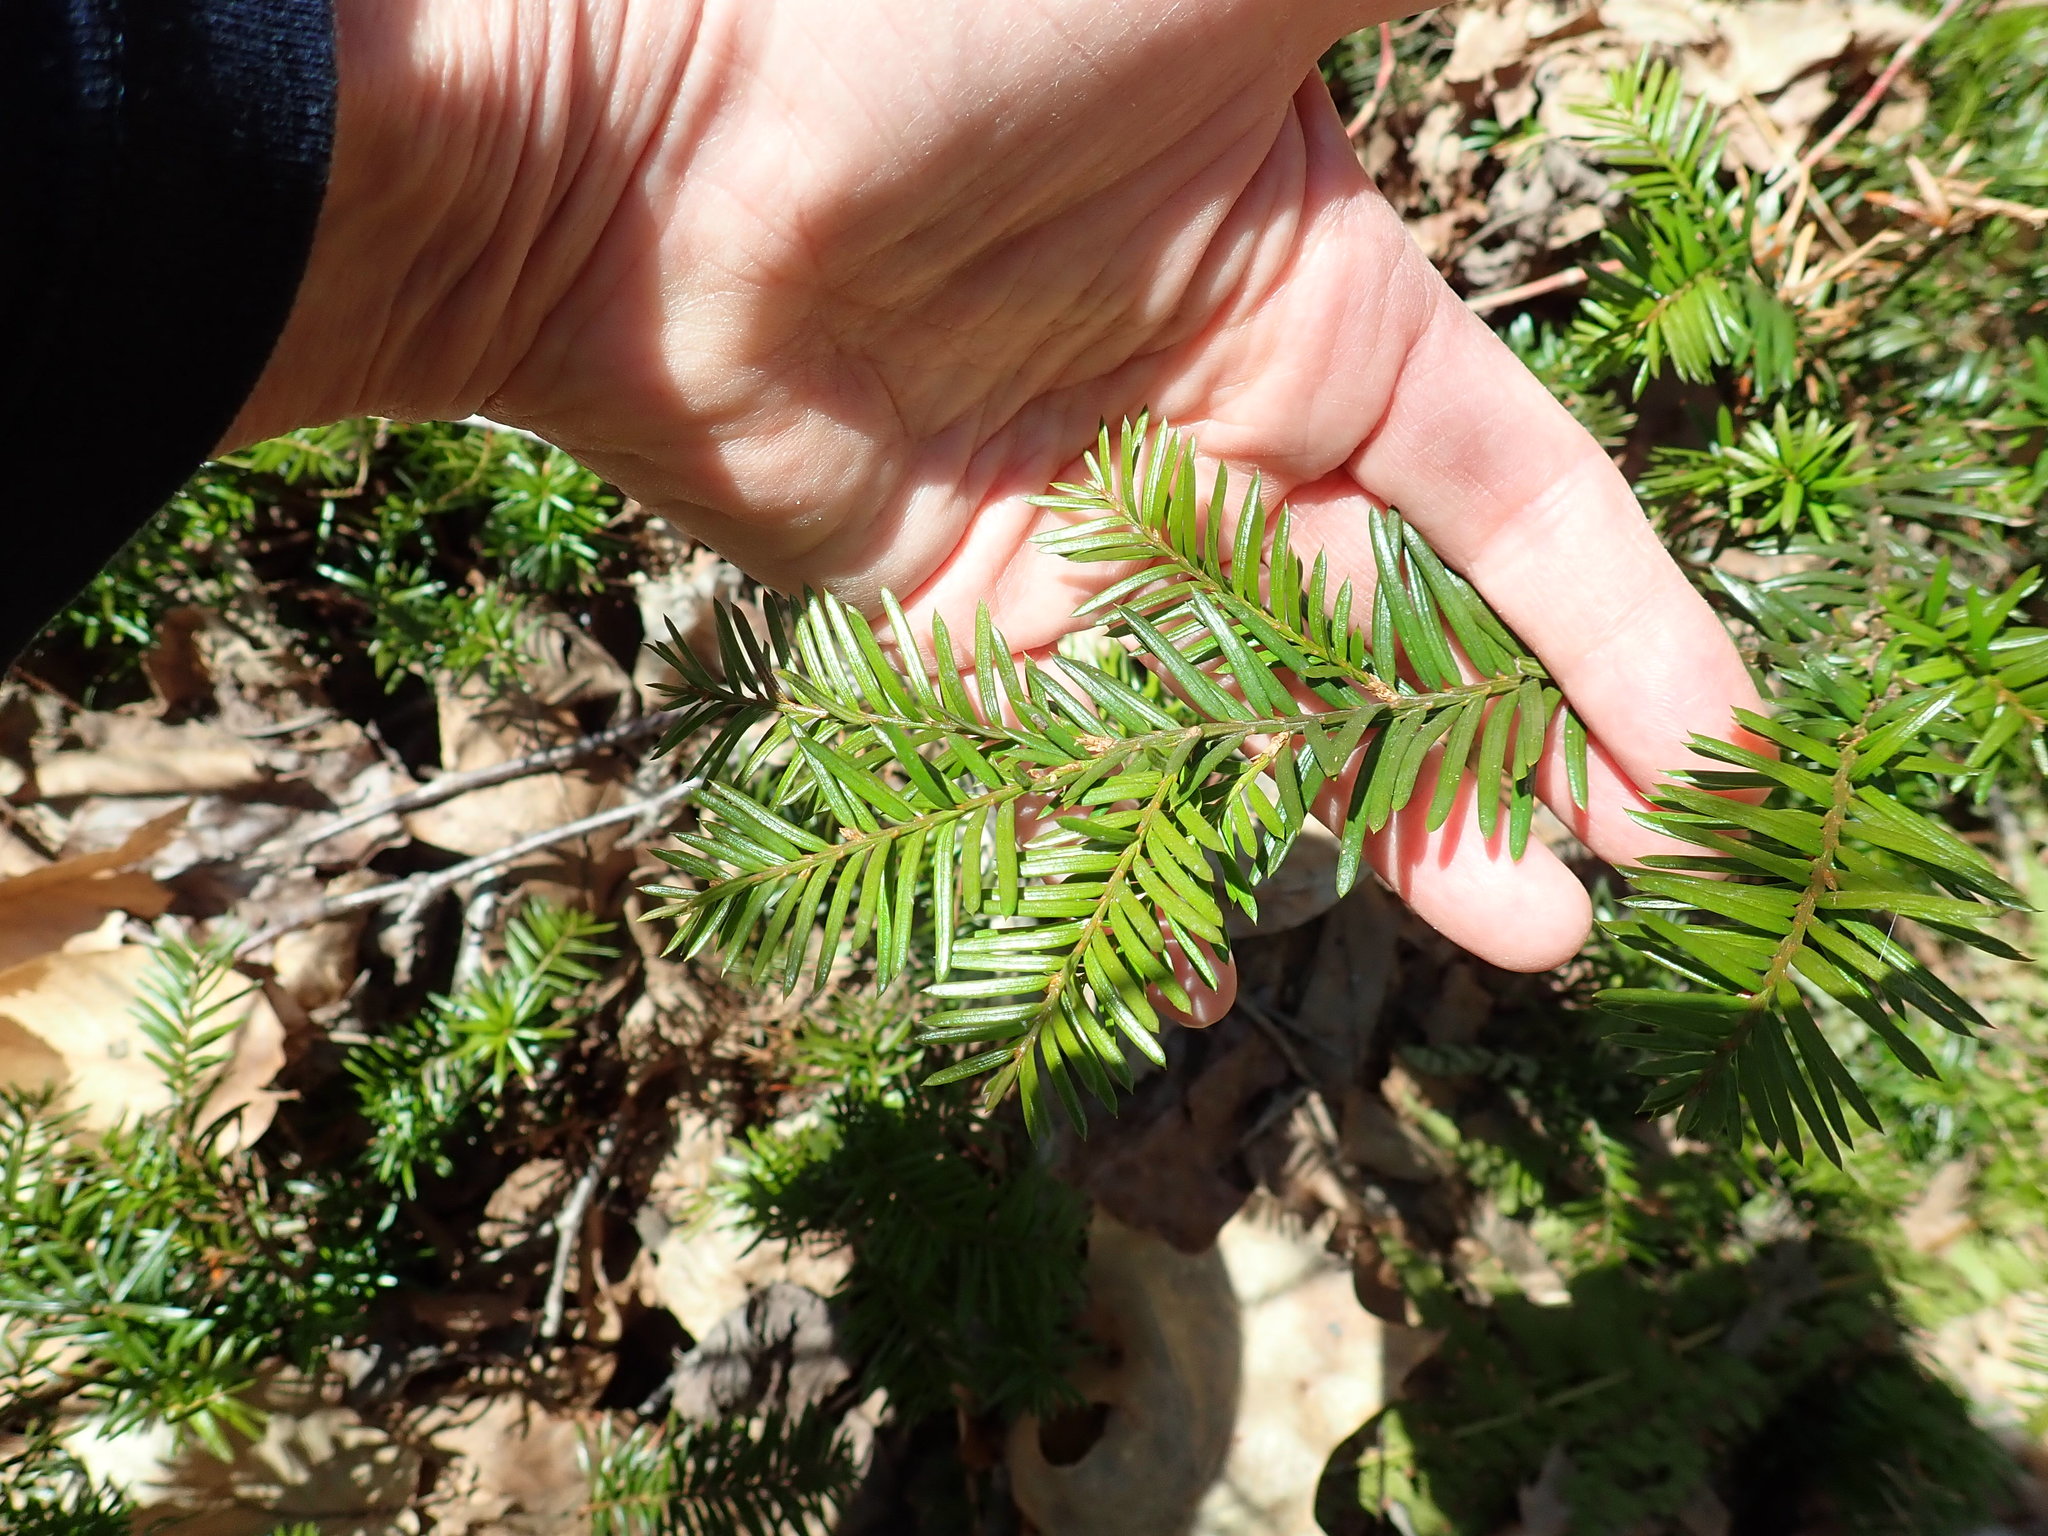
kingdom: Plantae
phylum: Tracheophyta
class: Pinopsida
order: Pinales
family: Taxaceae
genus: Taxus
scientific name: Taxus canadensis
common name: American yew
